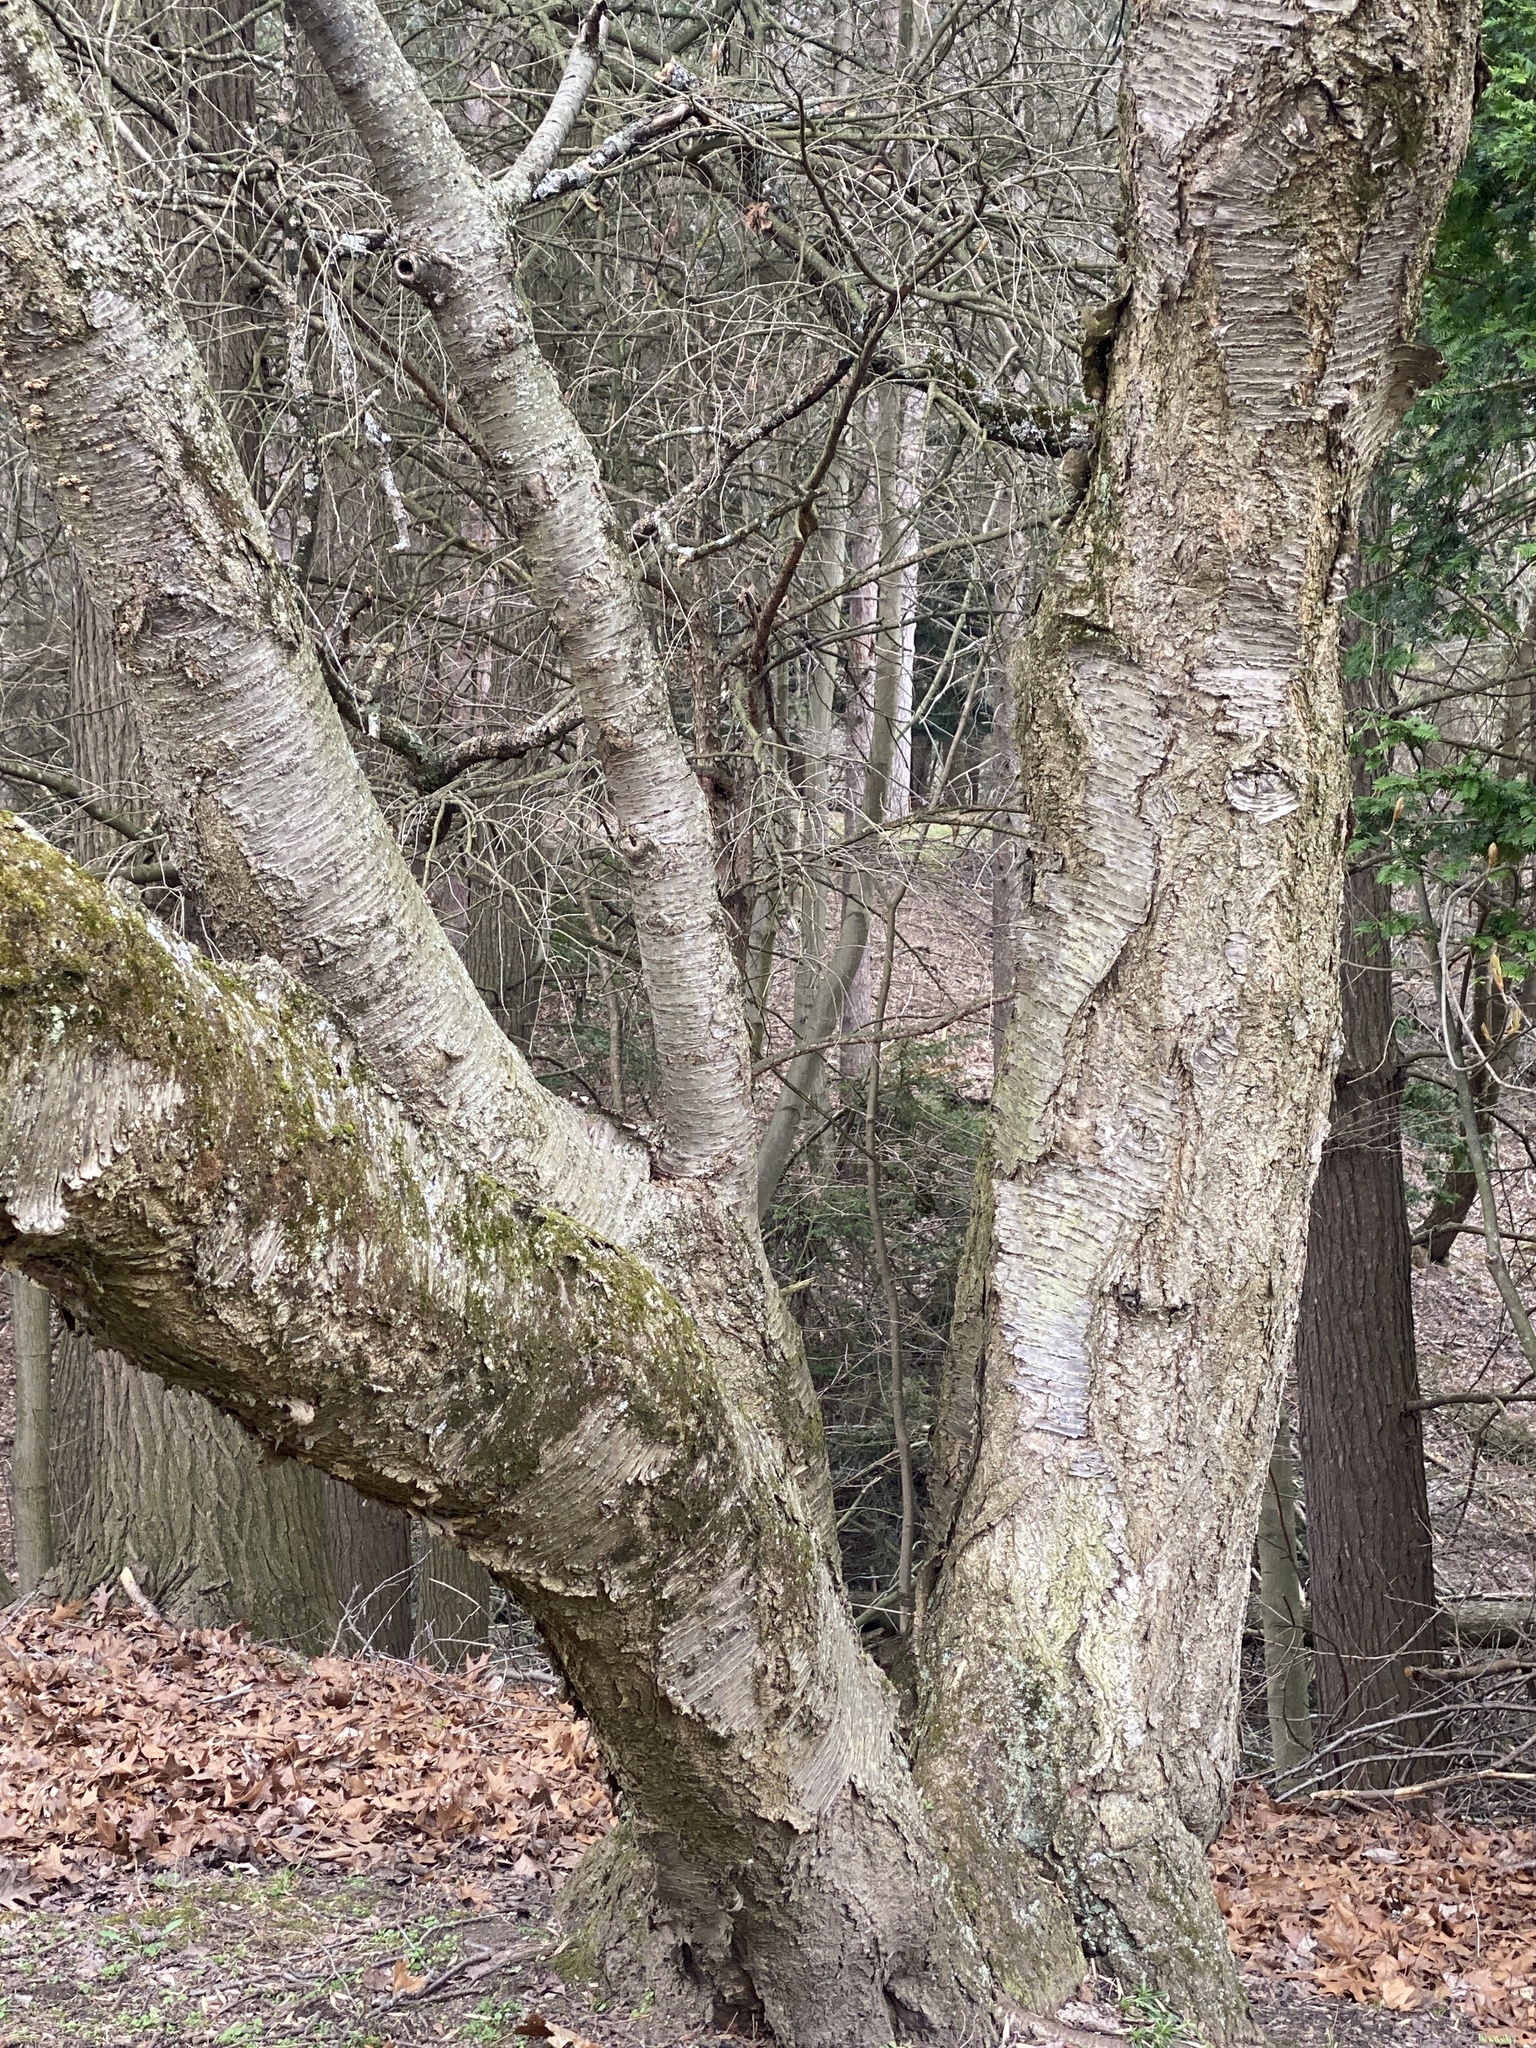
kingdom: Plantae
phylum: Tracheophyta
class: Magnoliopsida
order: Fagales
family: Betulaceae
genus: Betula
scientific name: Betula lenta
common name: Black birch
